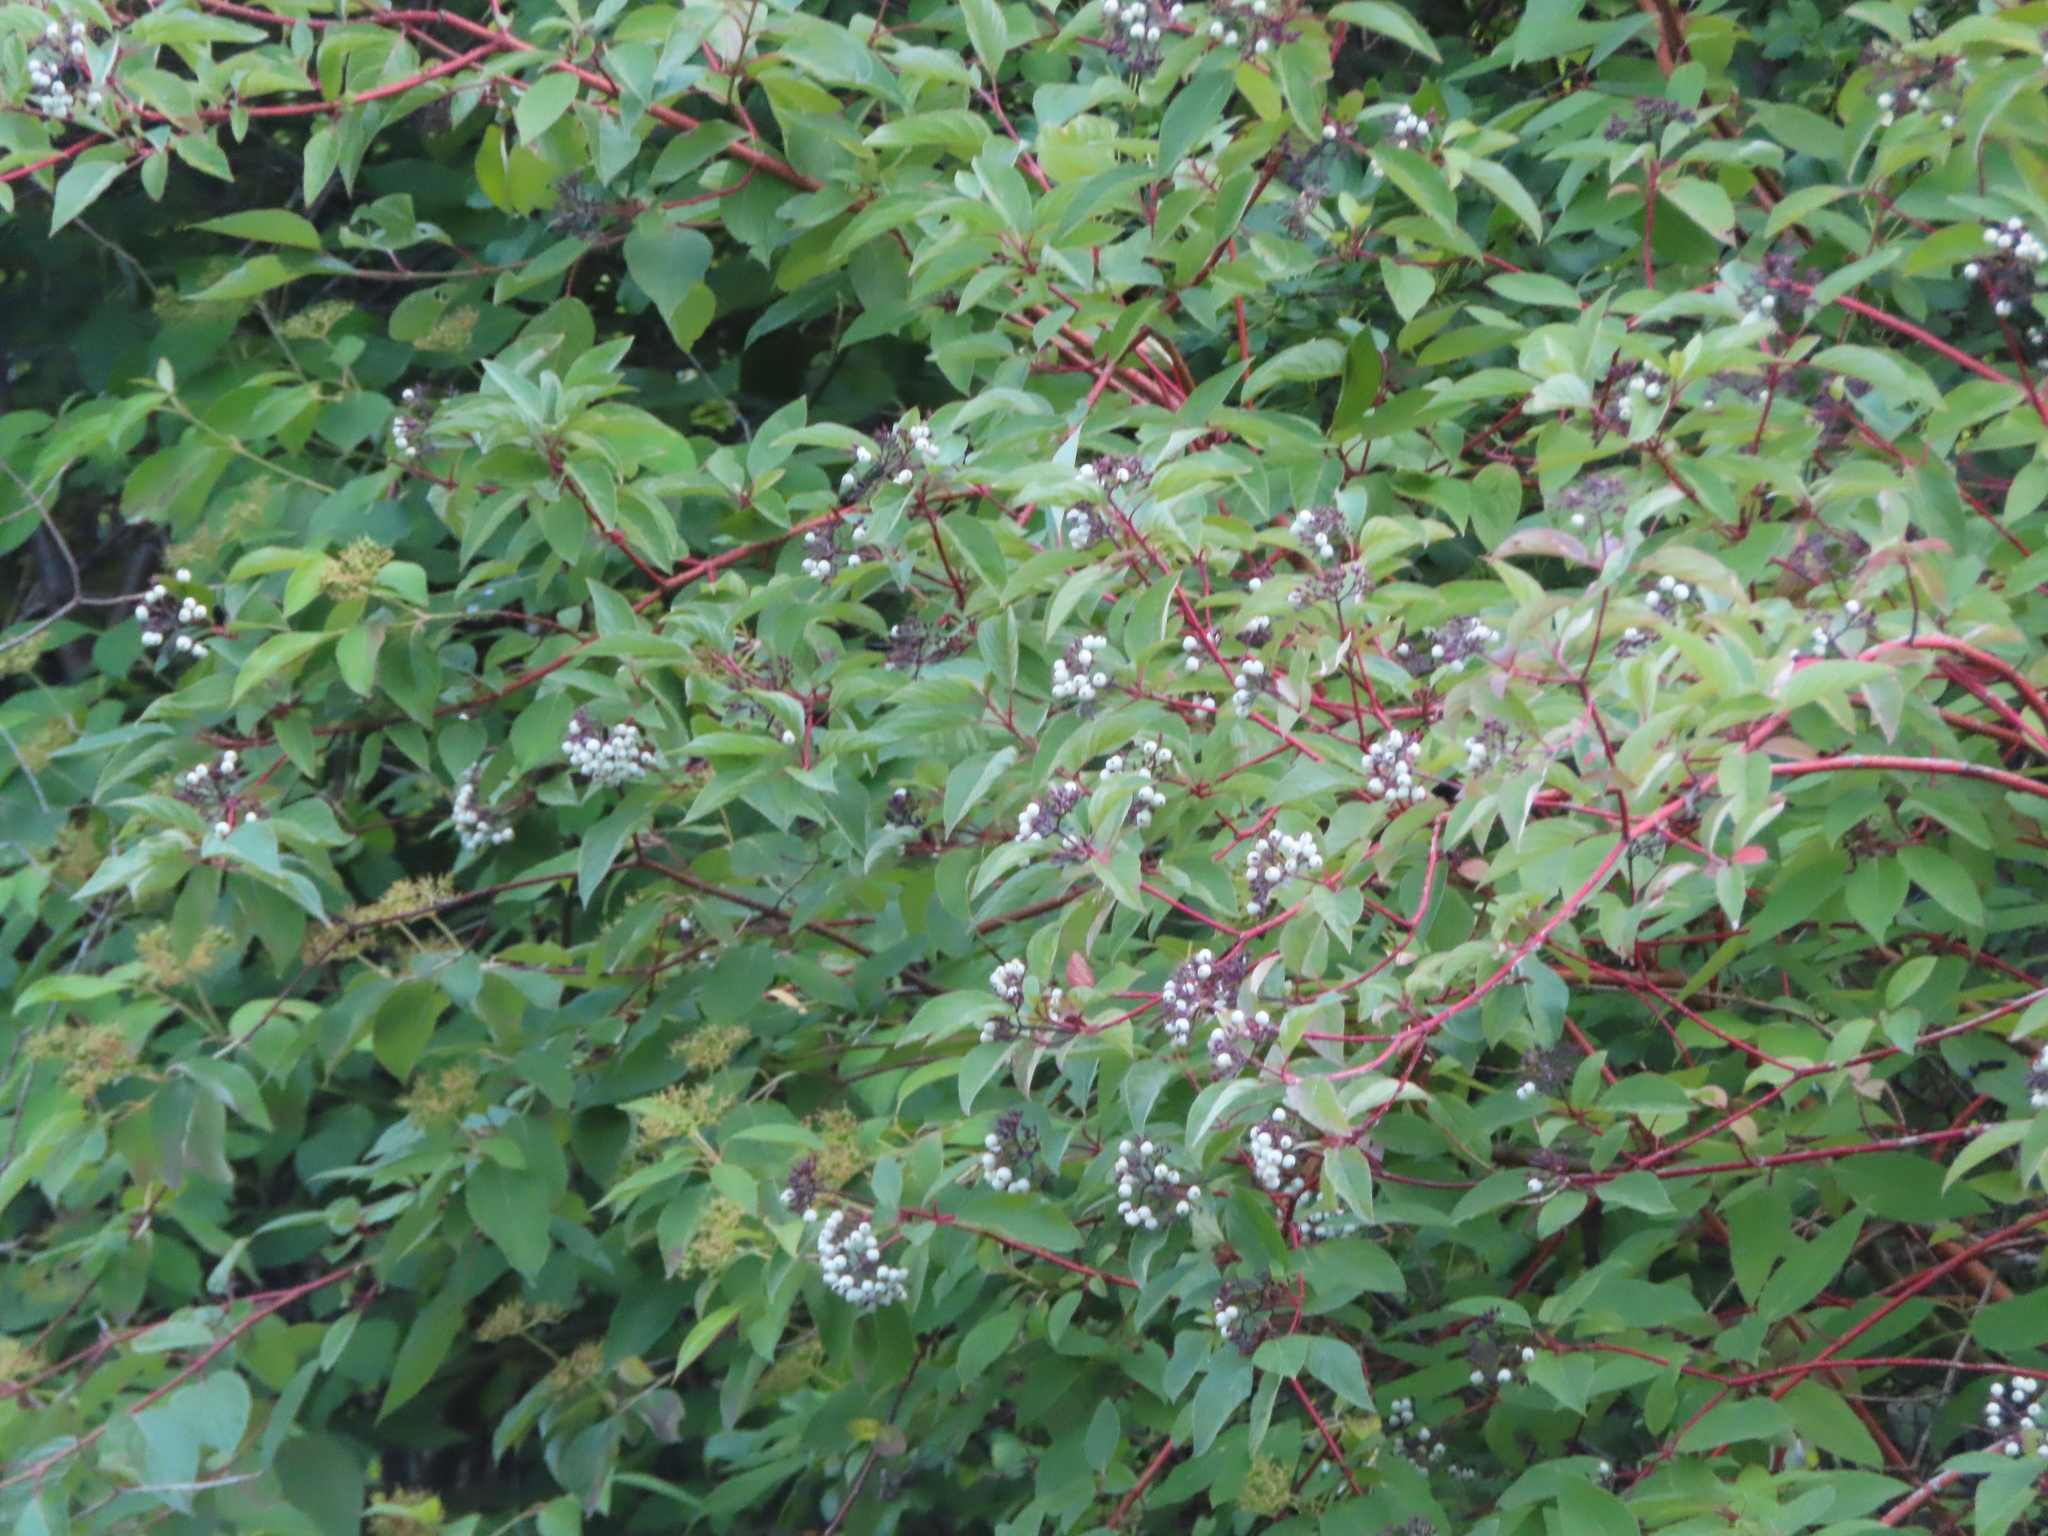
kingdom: Plantae
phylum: Tracheophyta
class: Magnoliopsida
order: Cornales
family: Cornaceae
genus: Cornus
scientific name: Cornus sericea
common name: Red-osier dogwood
